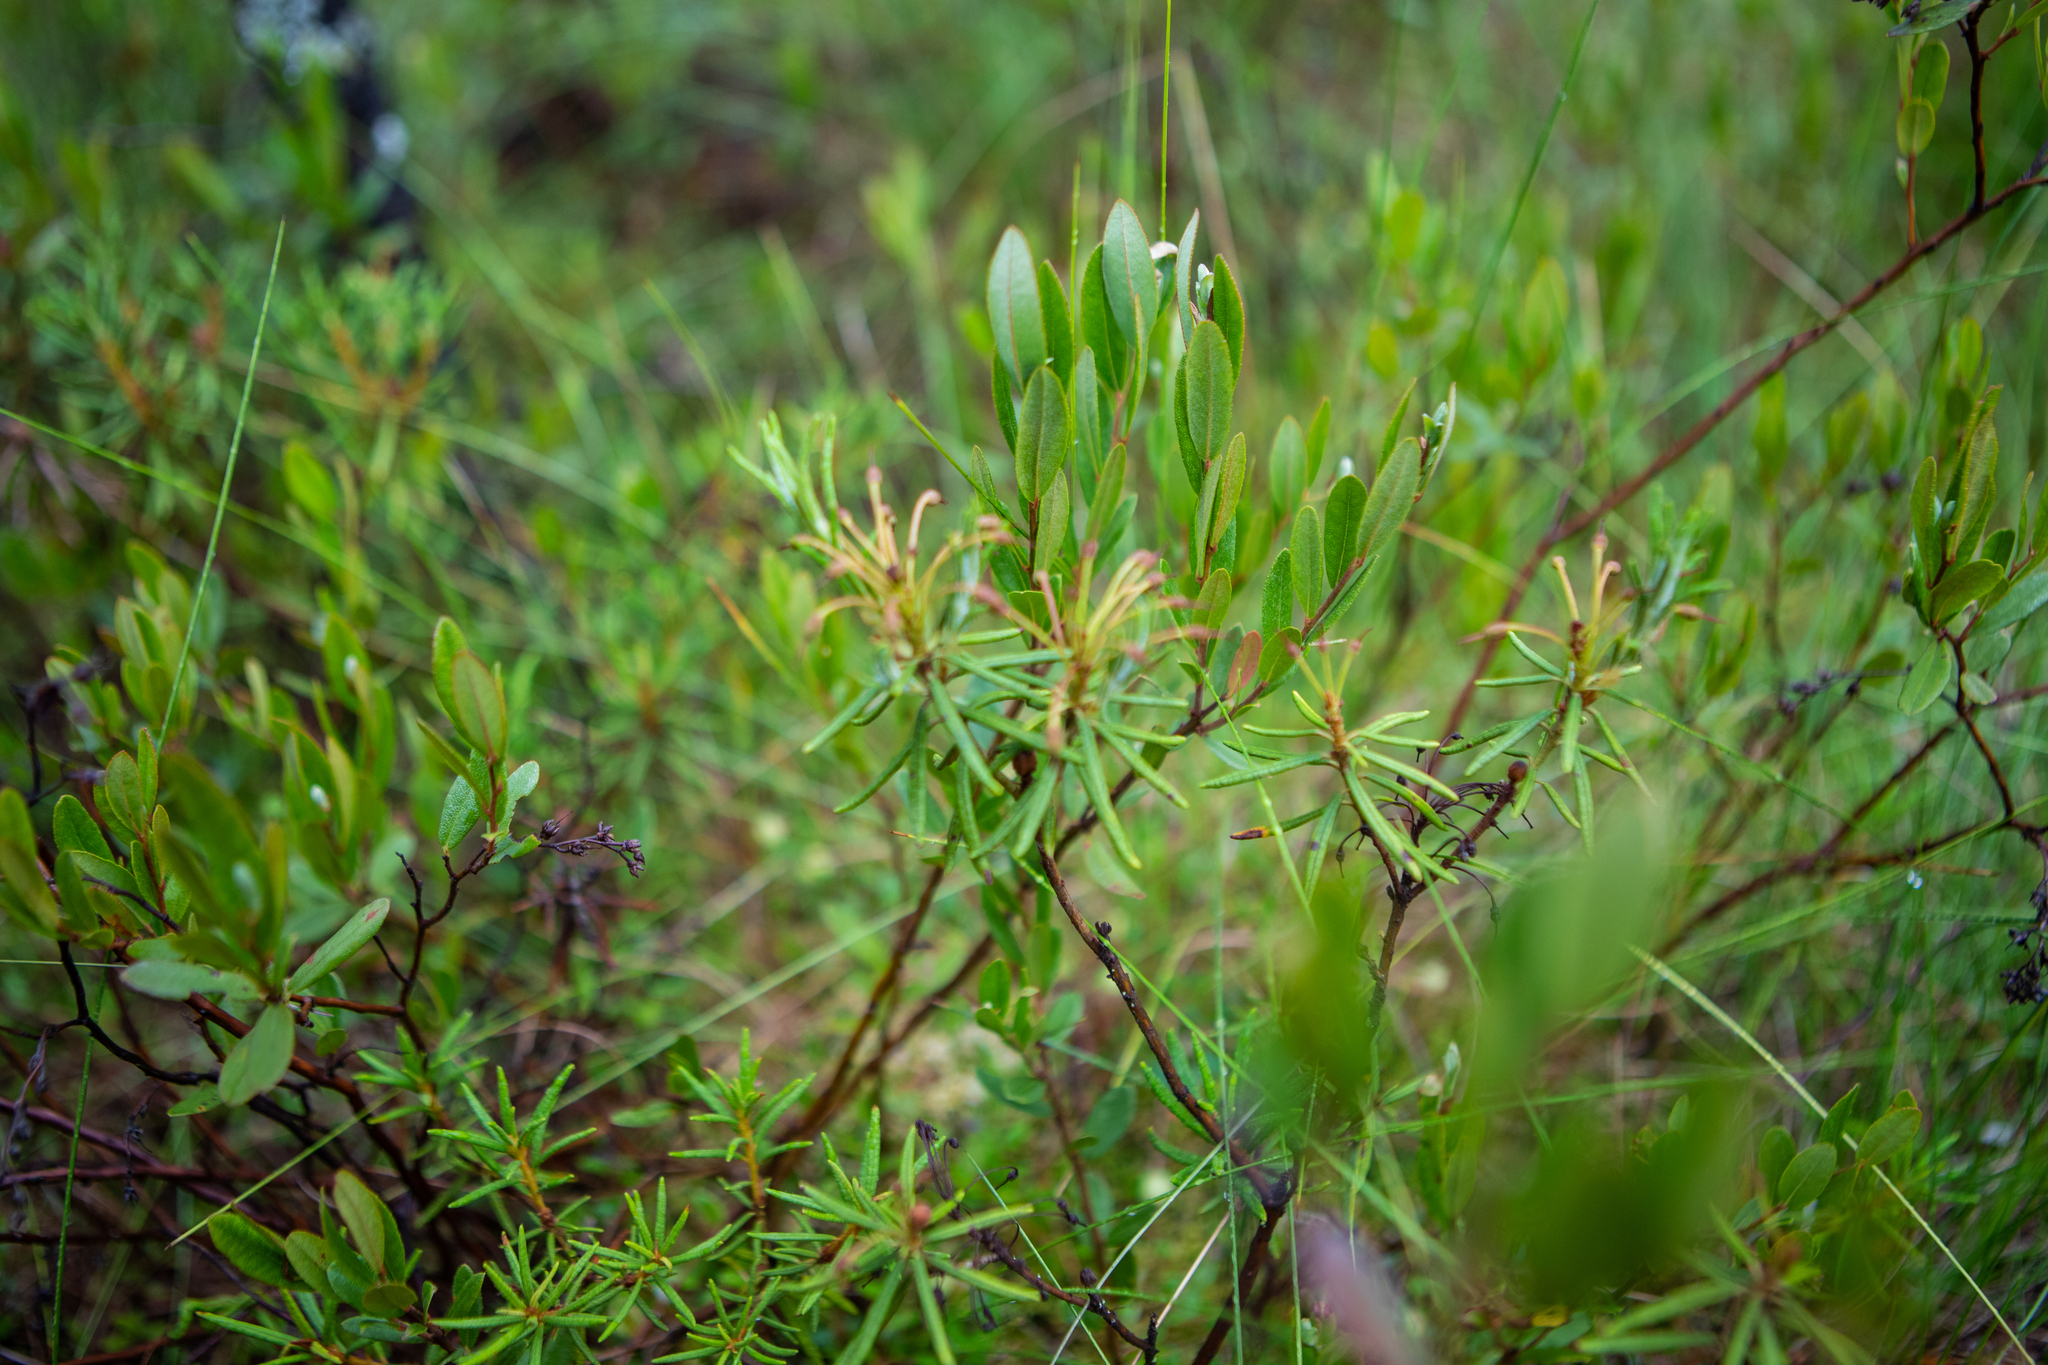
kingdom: Plantae
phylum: Tracheophyta
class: Magnoliopsida
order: Ericales
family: Ericaceae
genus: Chamaedaphne
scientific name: Chamaedaphne calyculata
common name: Leatherleaf
